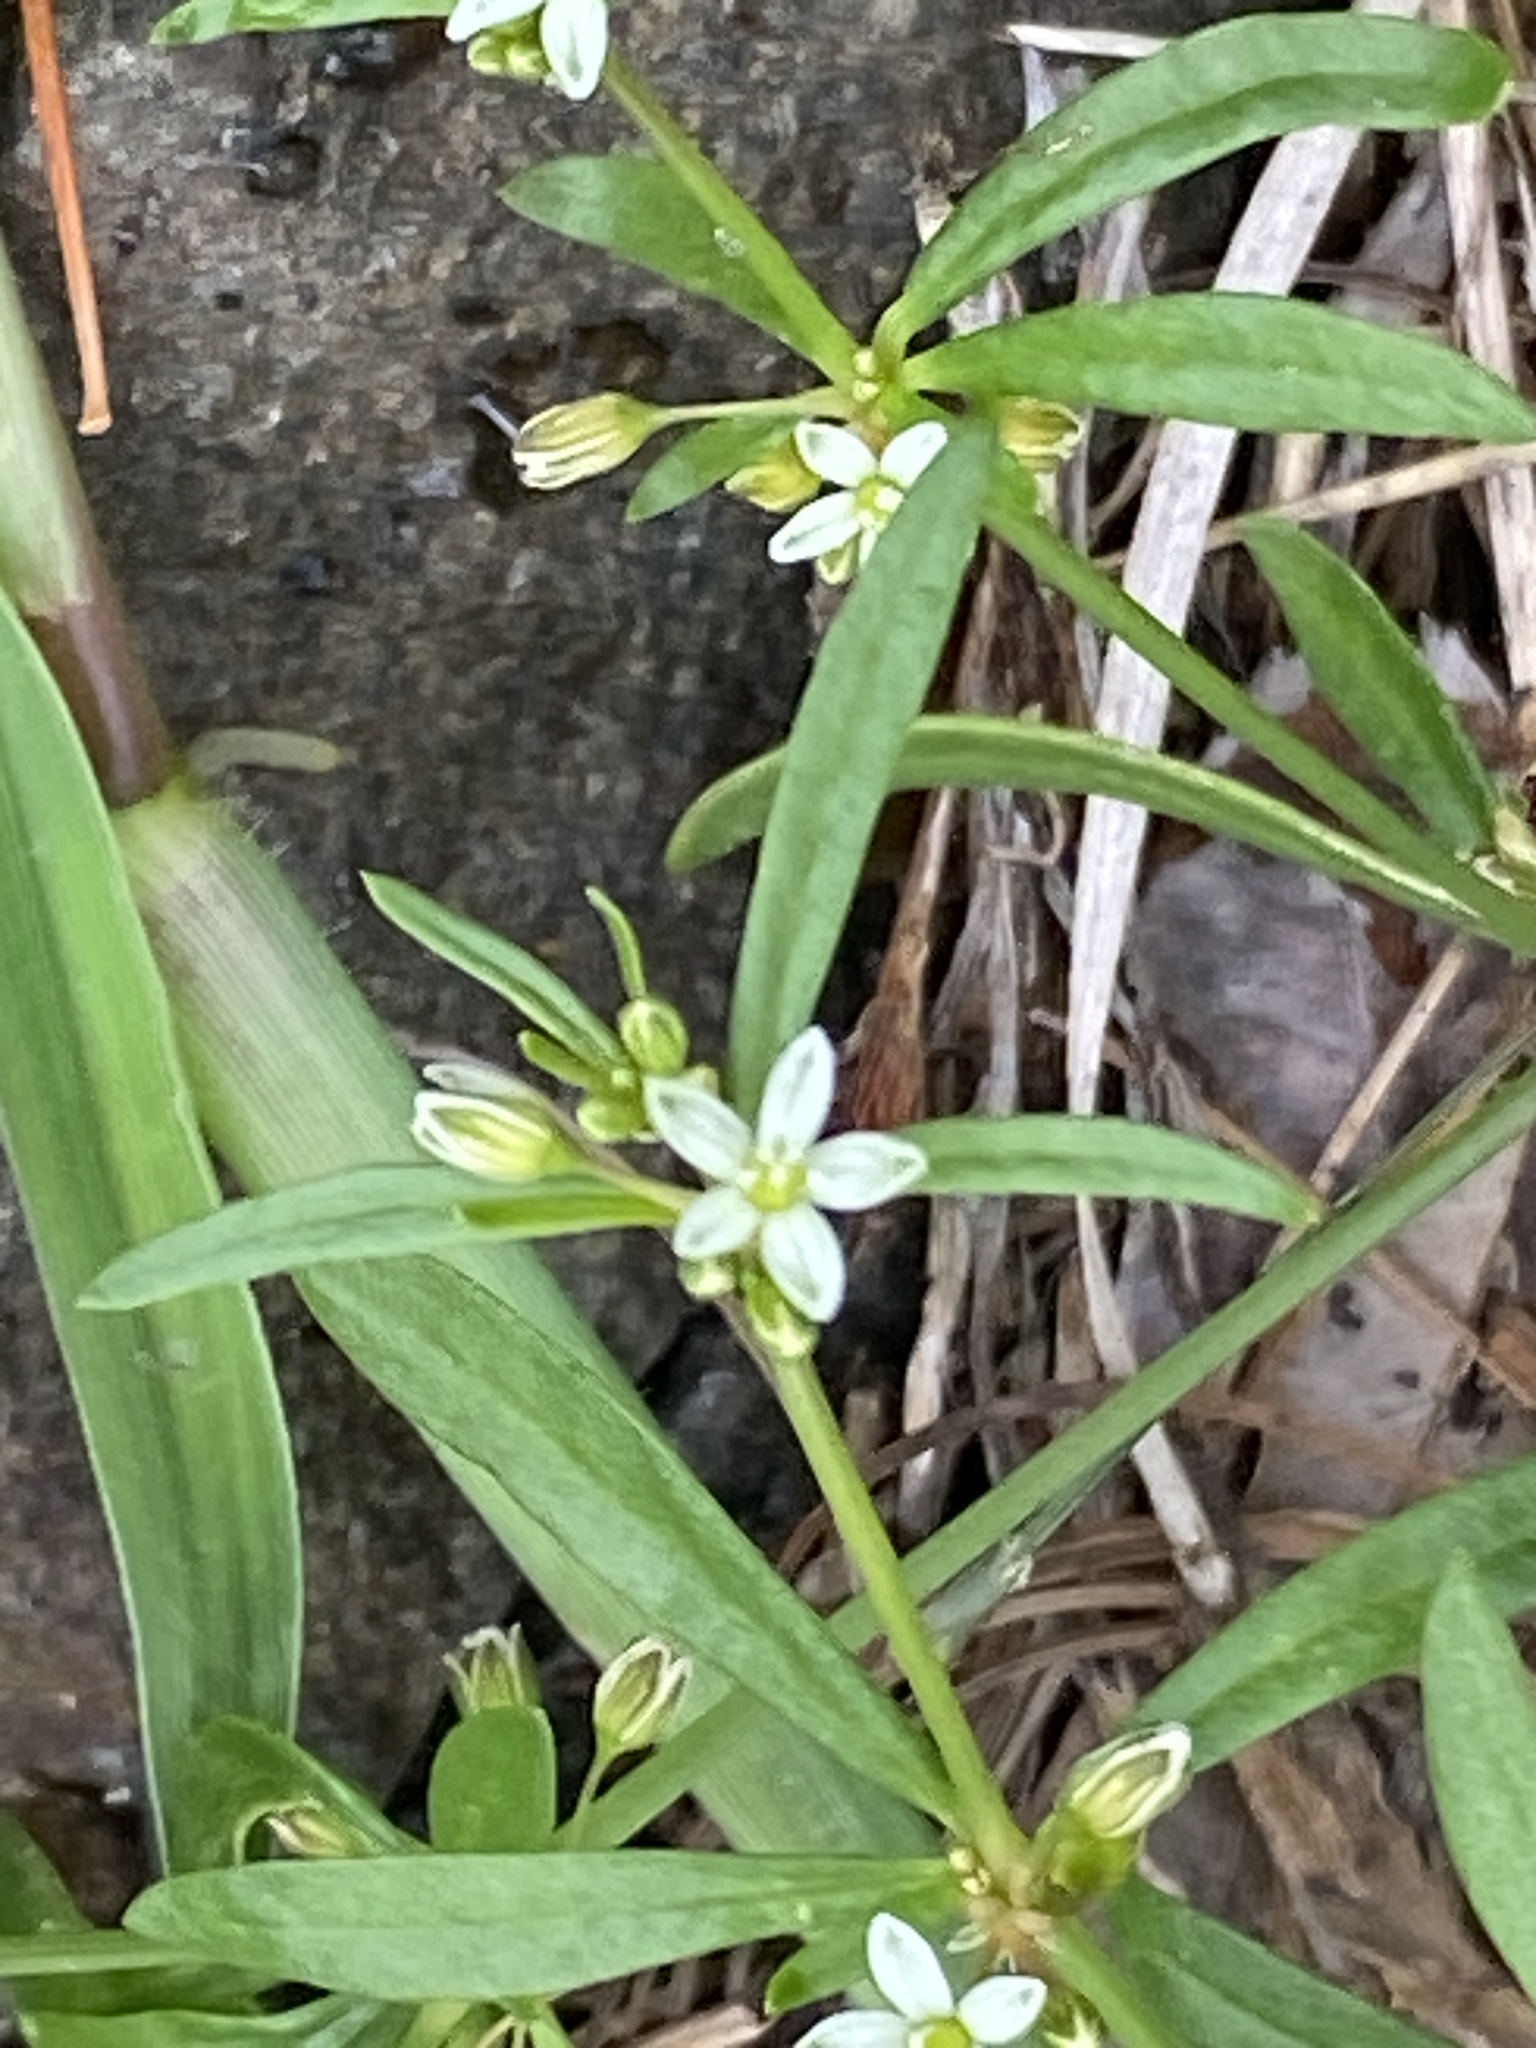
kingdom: Plantae
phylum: Tracheophyta
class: Magnoliopsida
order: Caryophyllales
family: Molluginaceae
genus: Mollugo
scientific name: Mollugo verticillata
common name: Green carpetweed
